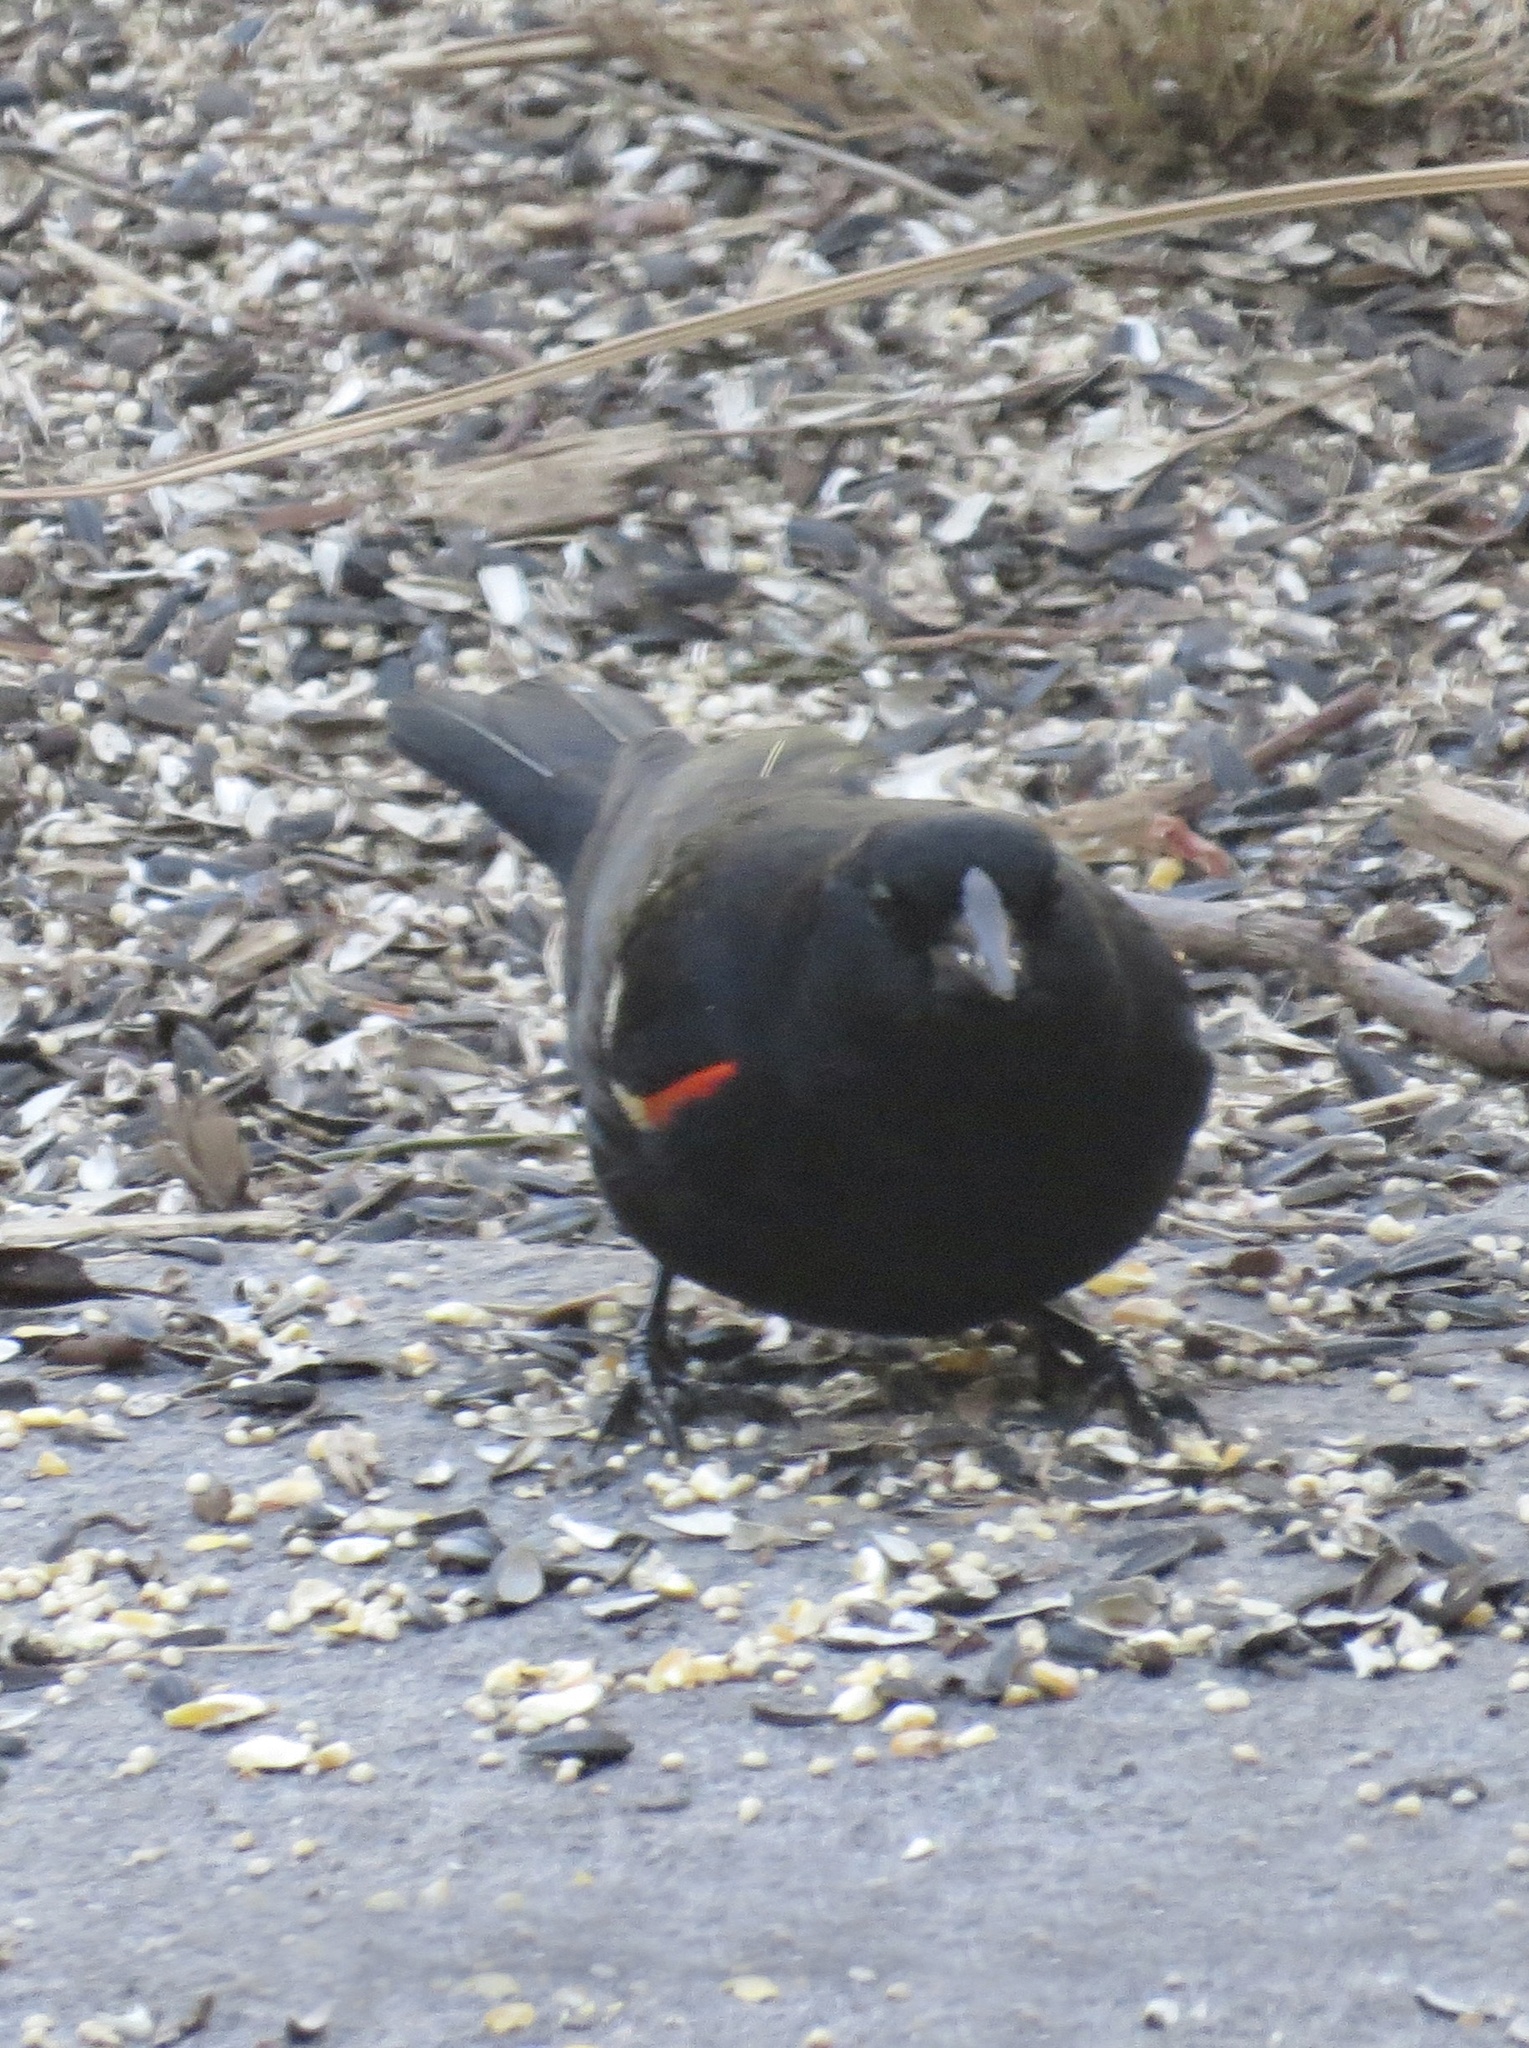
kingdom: Animalia
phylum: Chordata
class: Aves
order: Passeriformes
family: Icteridae
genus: Agelaius
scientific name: Agelaius phoeniceus
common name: Red-winged blackbird
